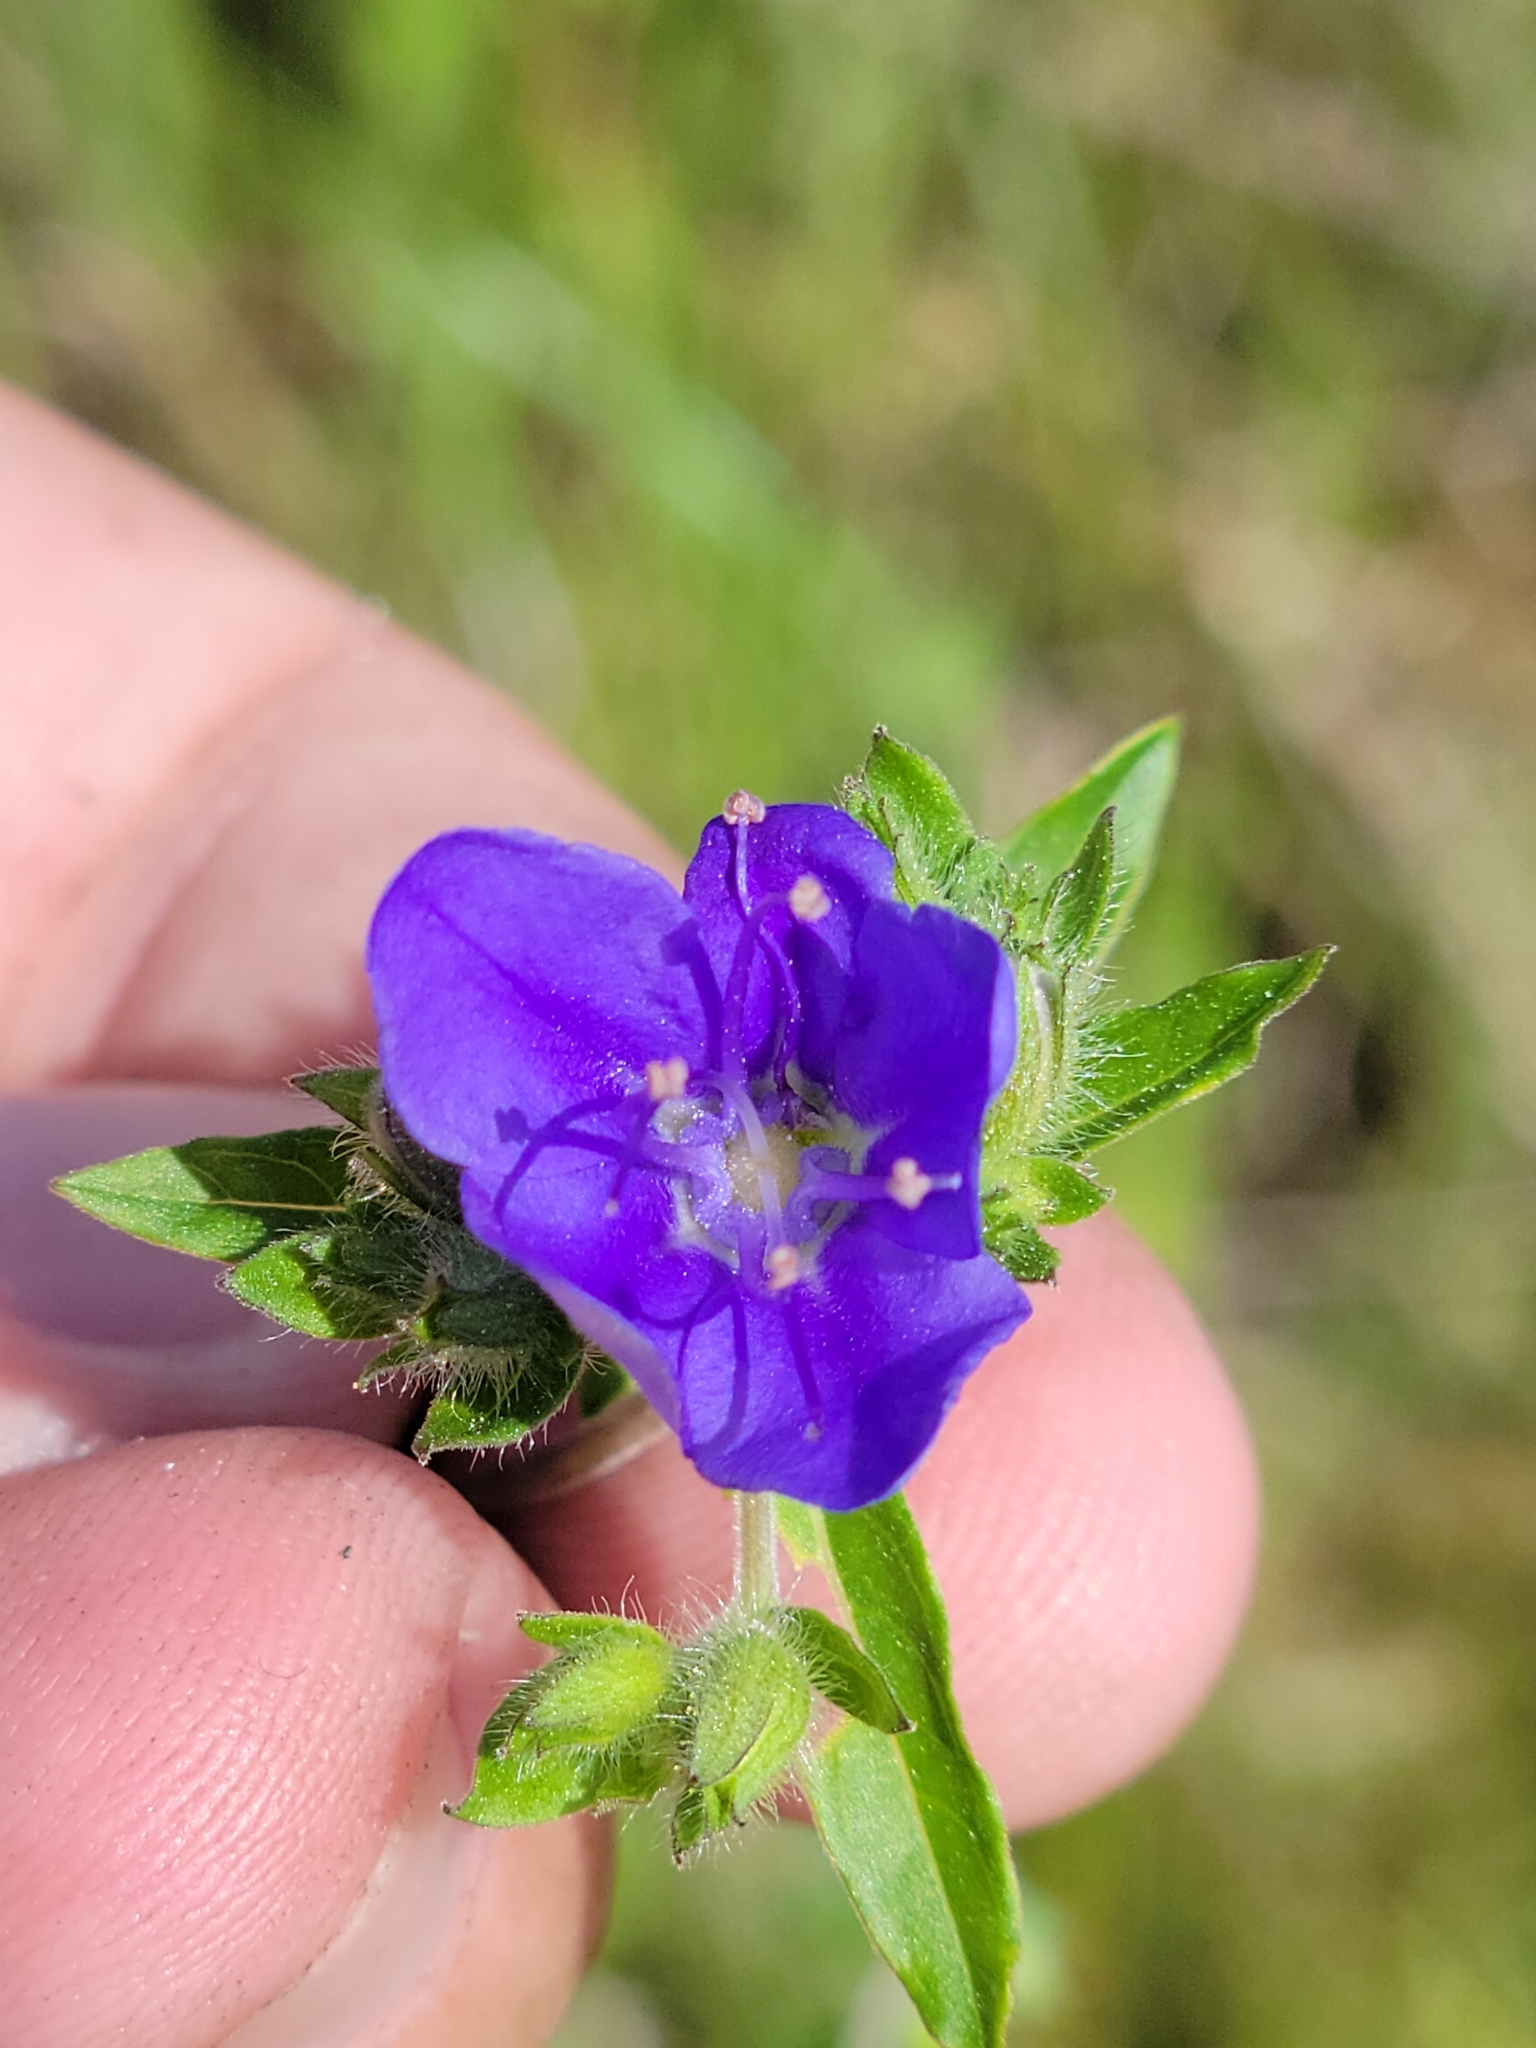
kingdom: Plantae
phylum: Tracheophyta
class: Magnoliopsida
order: Solanales
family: Hydroleaceae
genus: Hydrolea
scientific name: Hydrolea corymbosa
